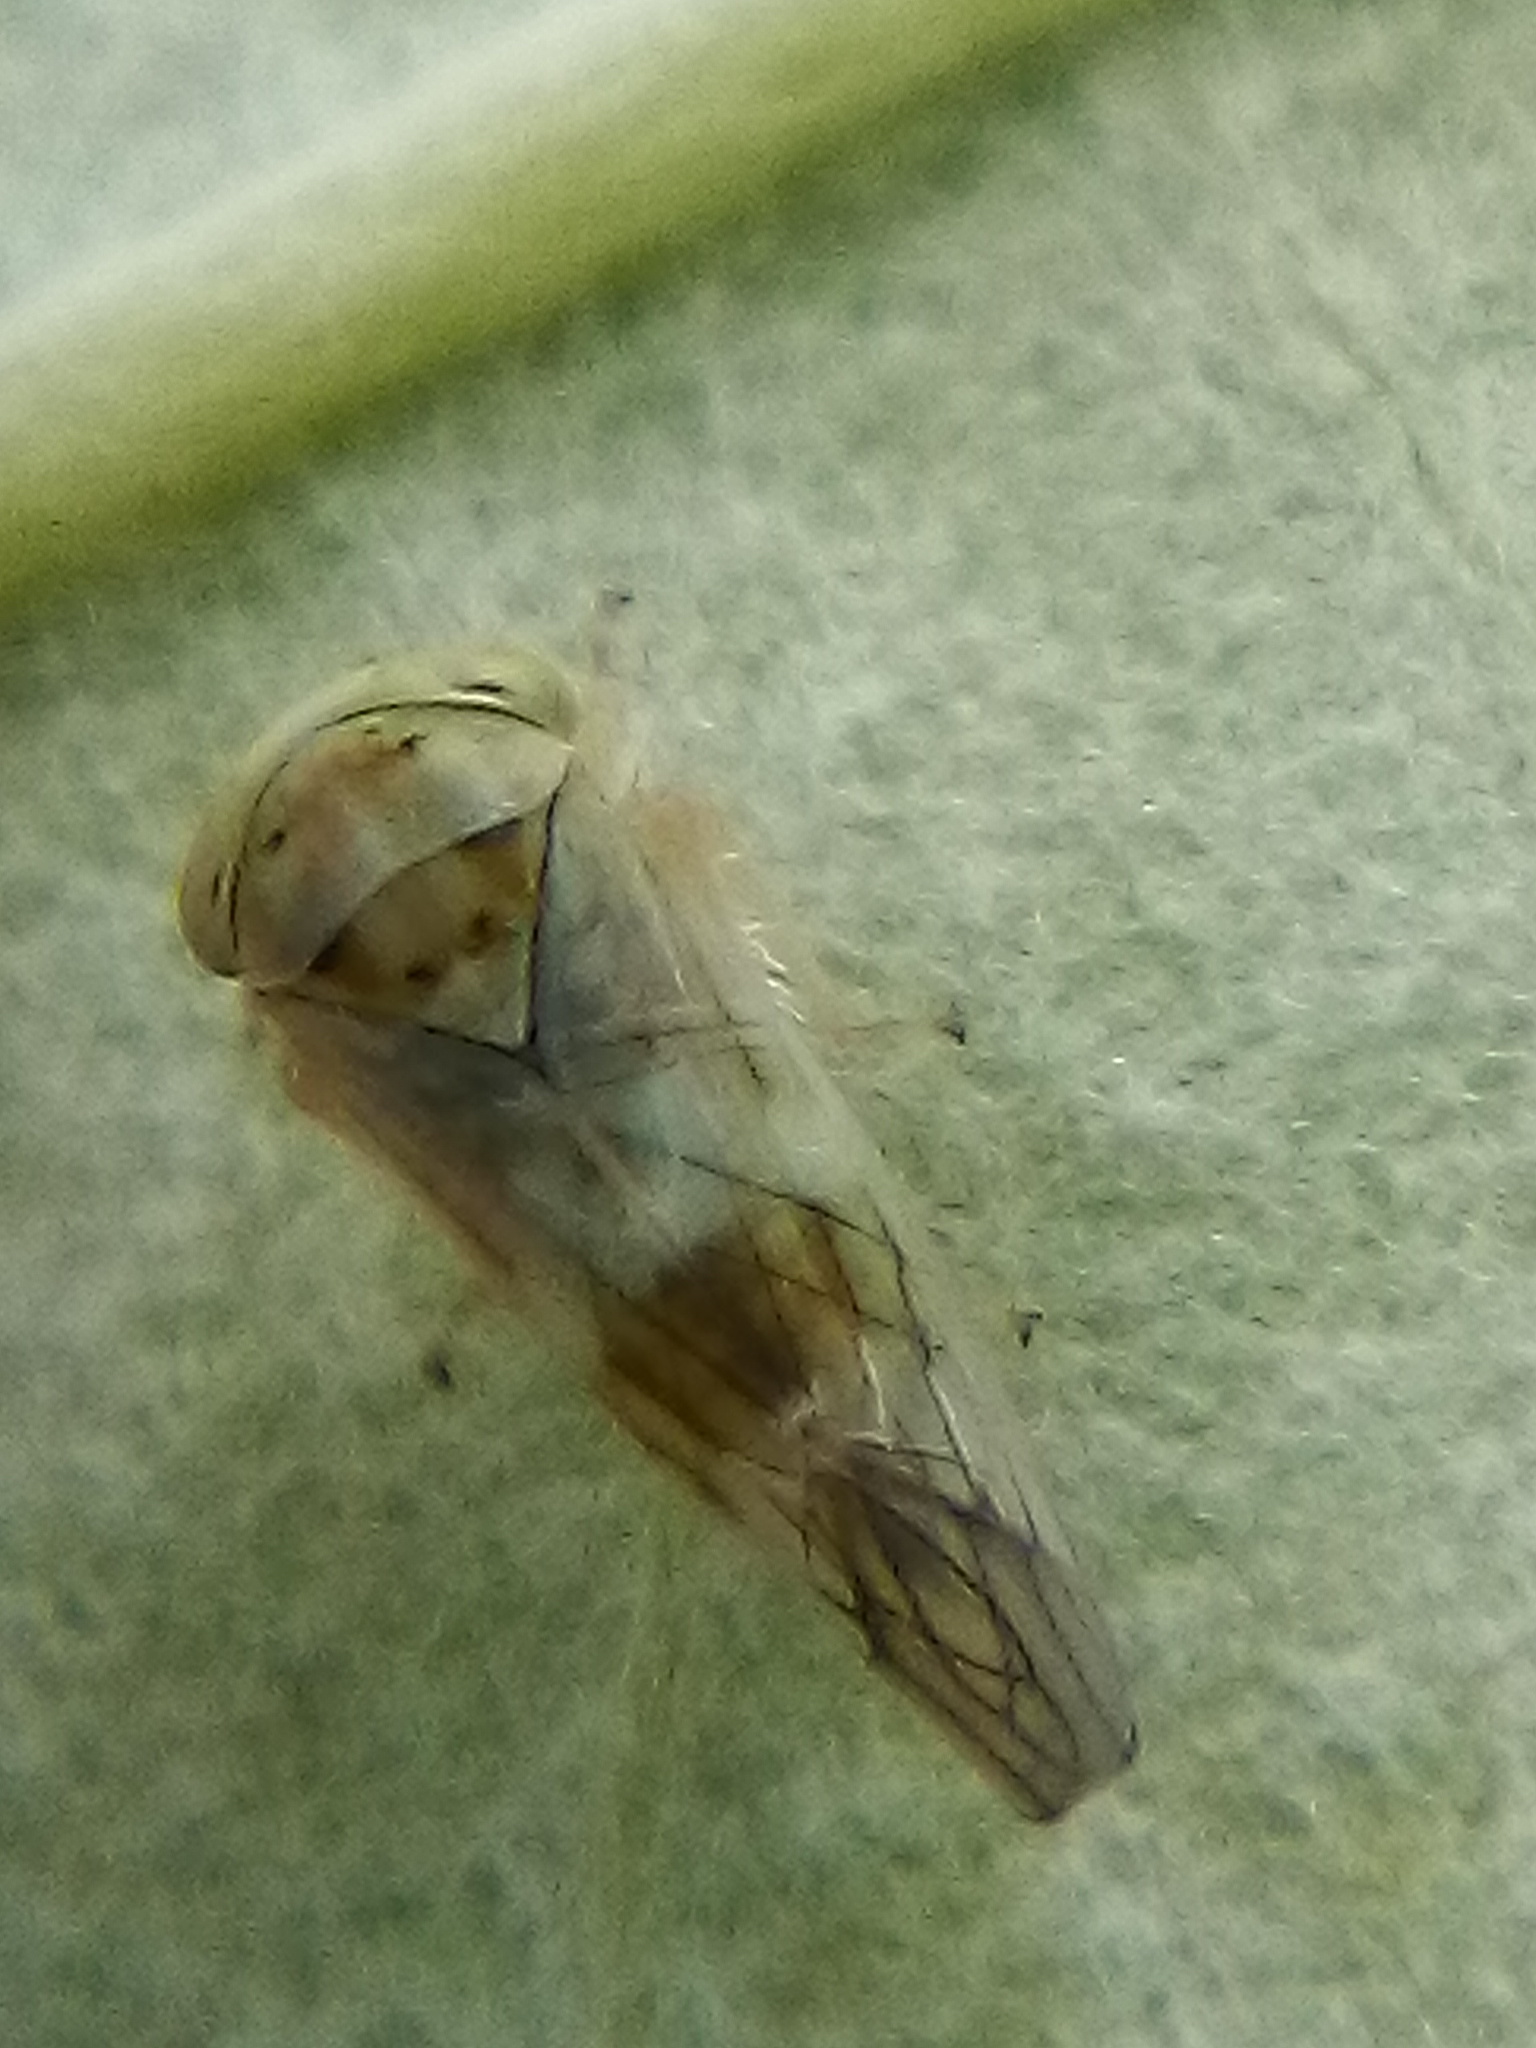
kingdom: Animalia
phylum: Arthropoda
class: Insecta
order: Hemiptera
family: Cicadellidae
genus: Tremulicerus
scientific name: Tremulicerus distinguendus
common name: Leafhopper
